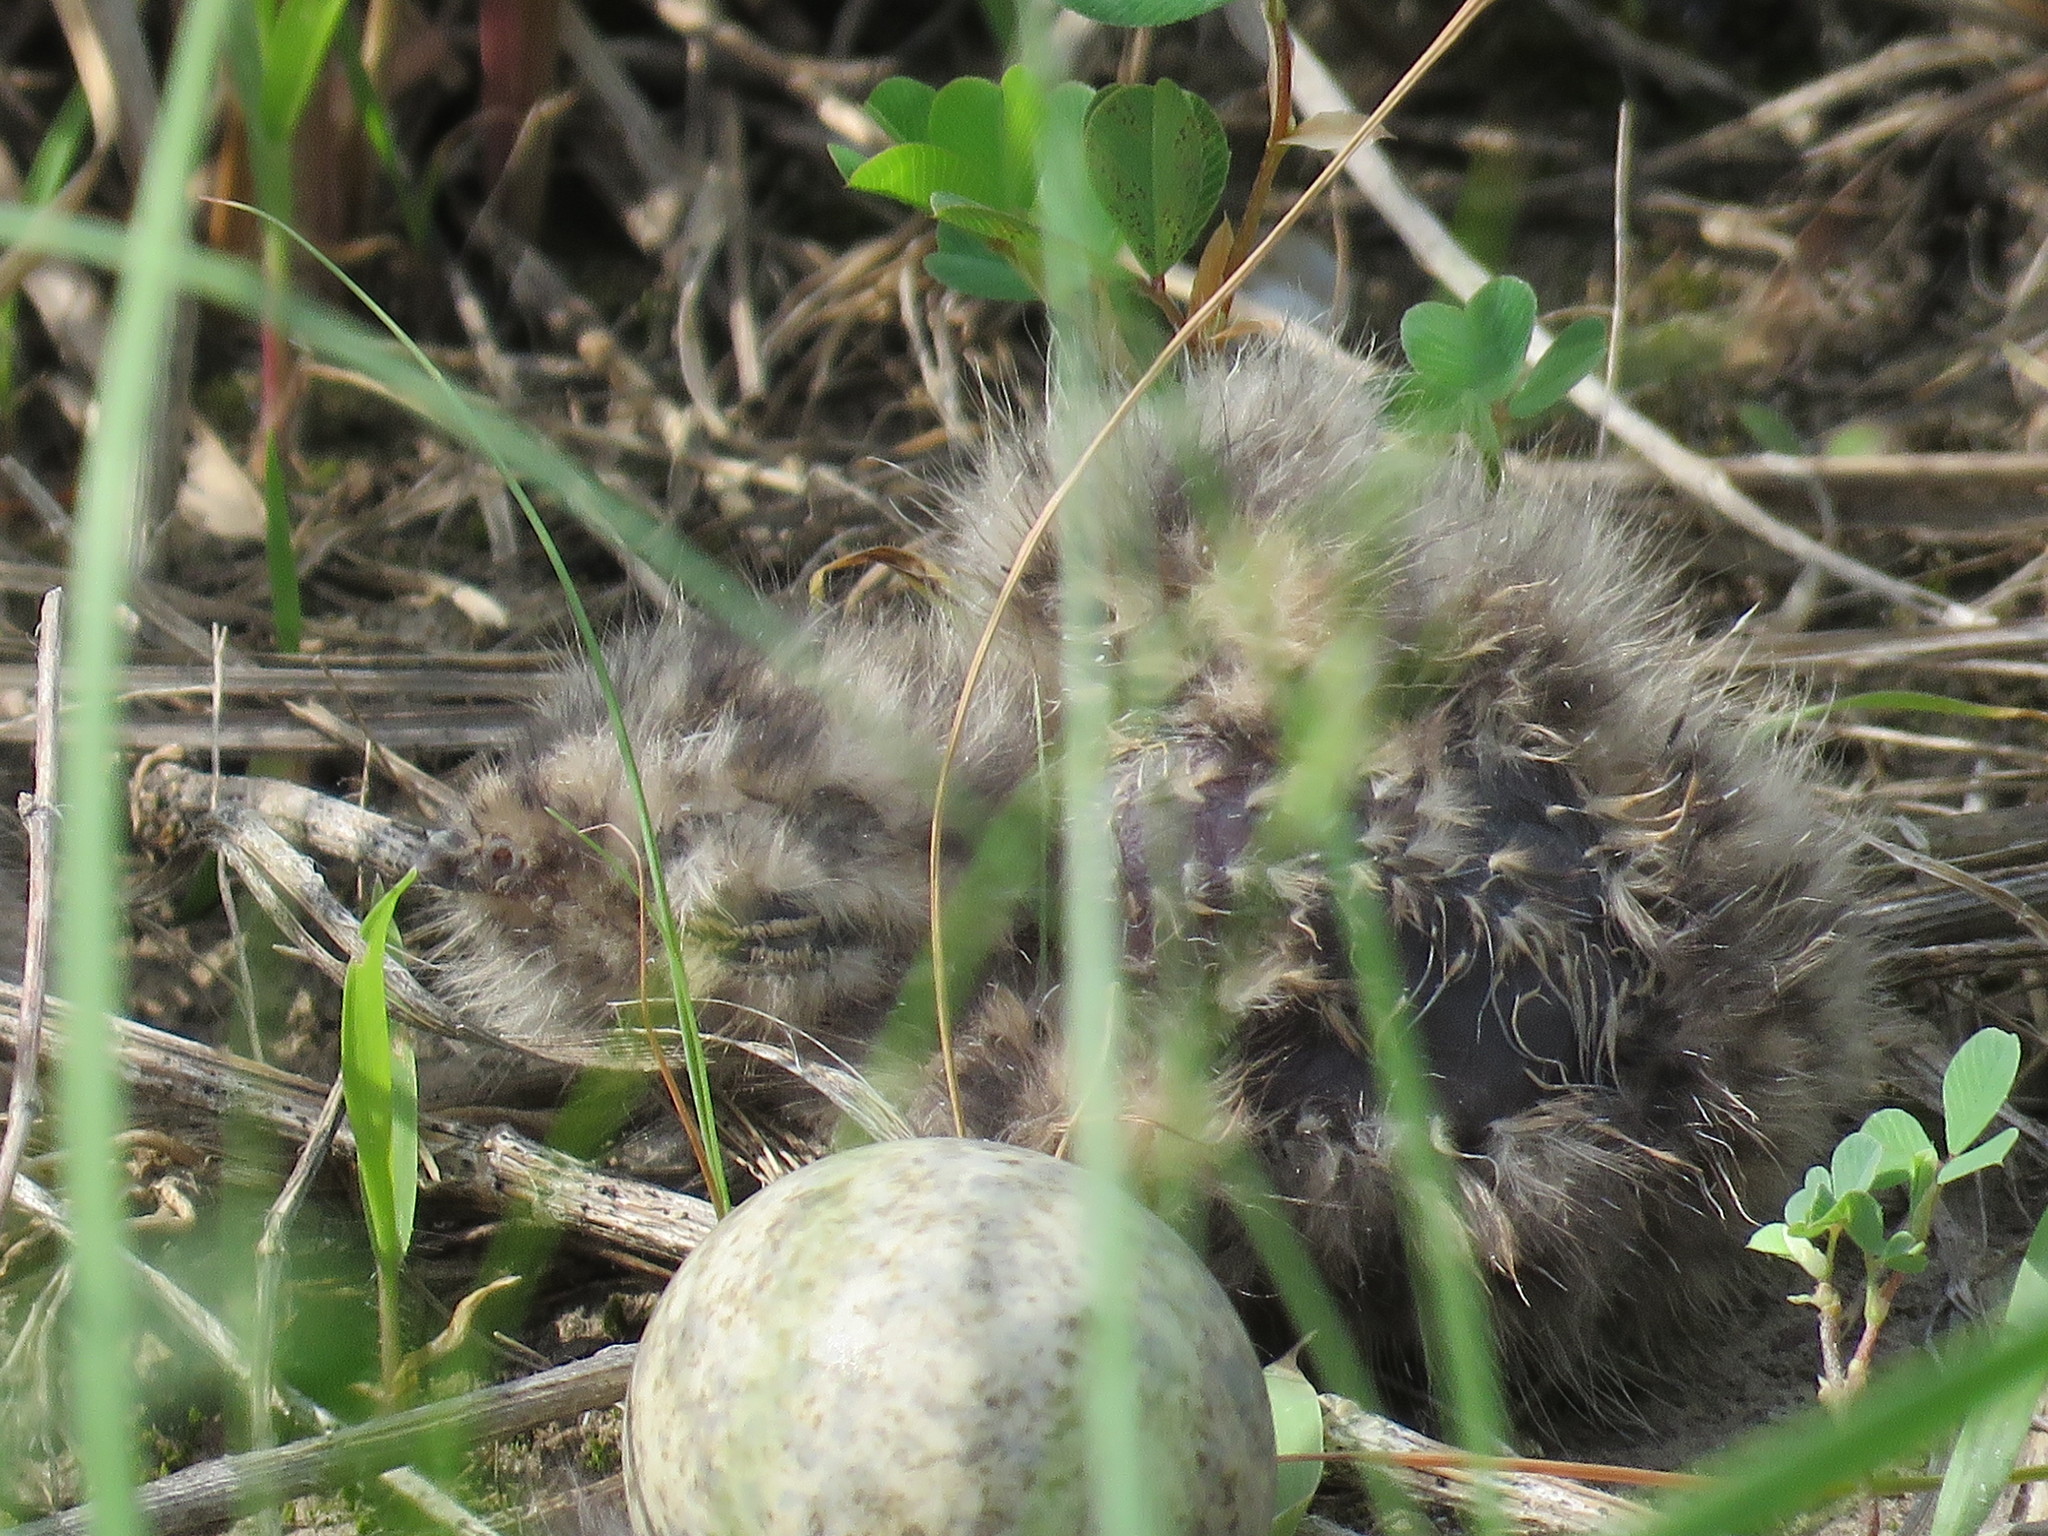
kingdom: Animalia
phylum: Chordata
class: Aves
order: Caprimulgiformes
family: Caprimulgidae
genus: Chordeiles
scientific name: Chordeiles minor
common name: Common nighthawk
